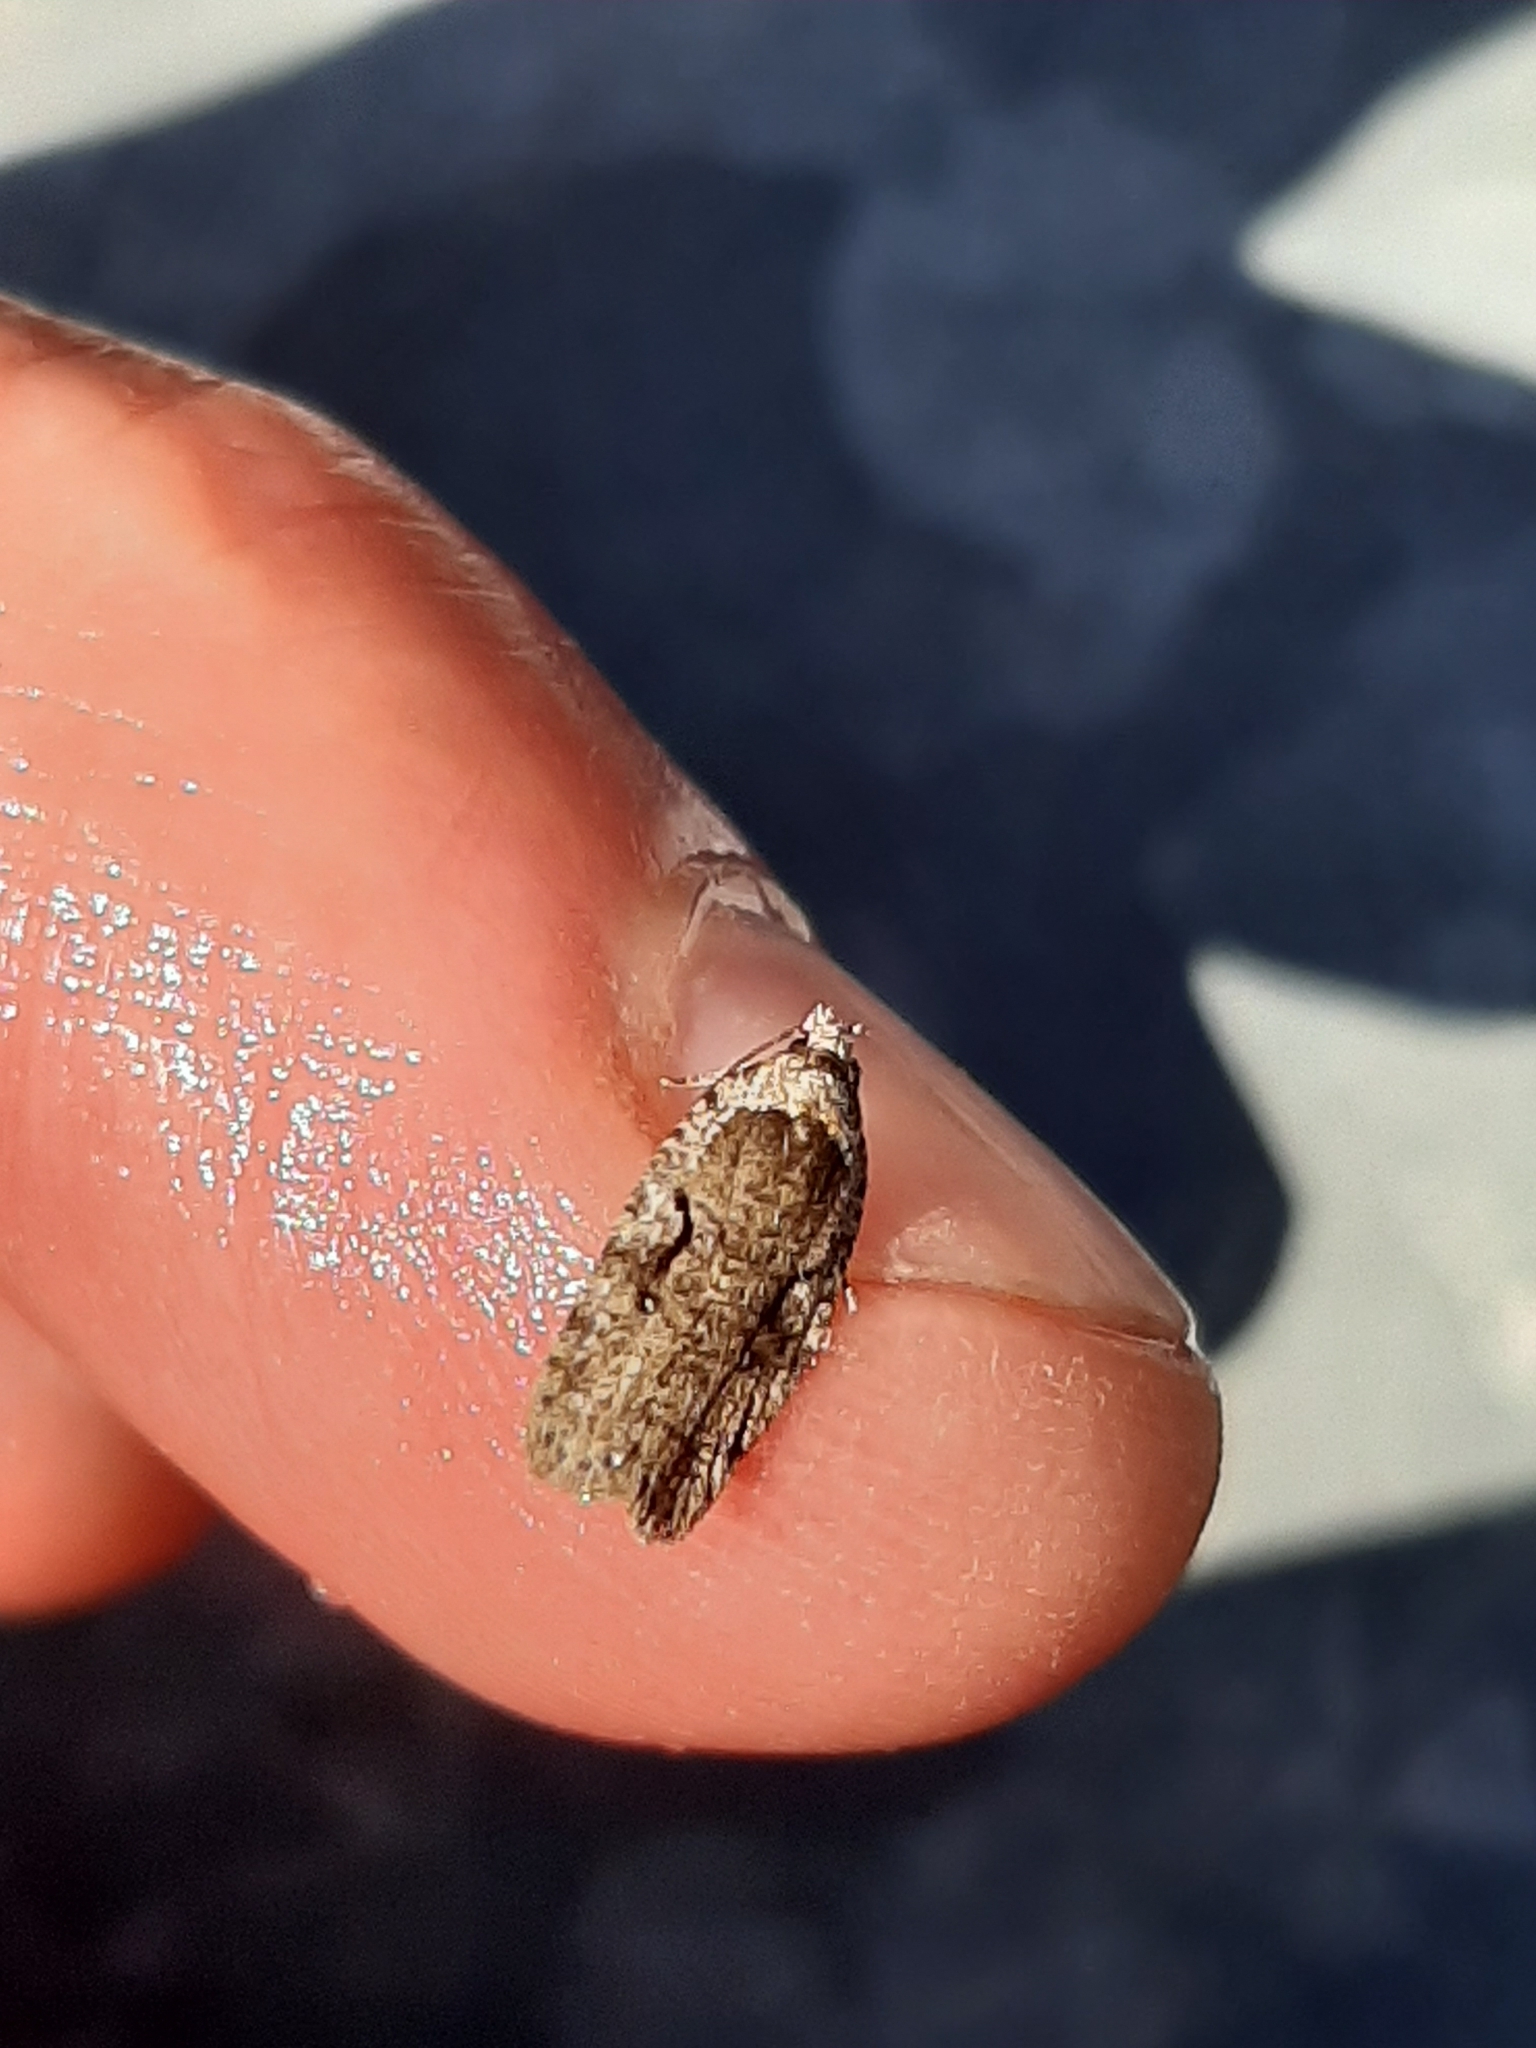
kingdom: Animalia
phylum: Arthropoda
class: Insecta
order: Lepidoptera
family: Depressariidae
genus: Agonopterix
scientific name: Agonopterix curvilineella
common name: Curved-line agonopterix moth
